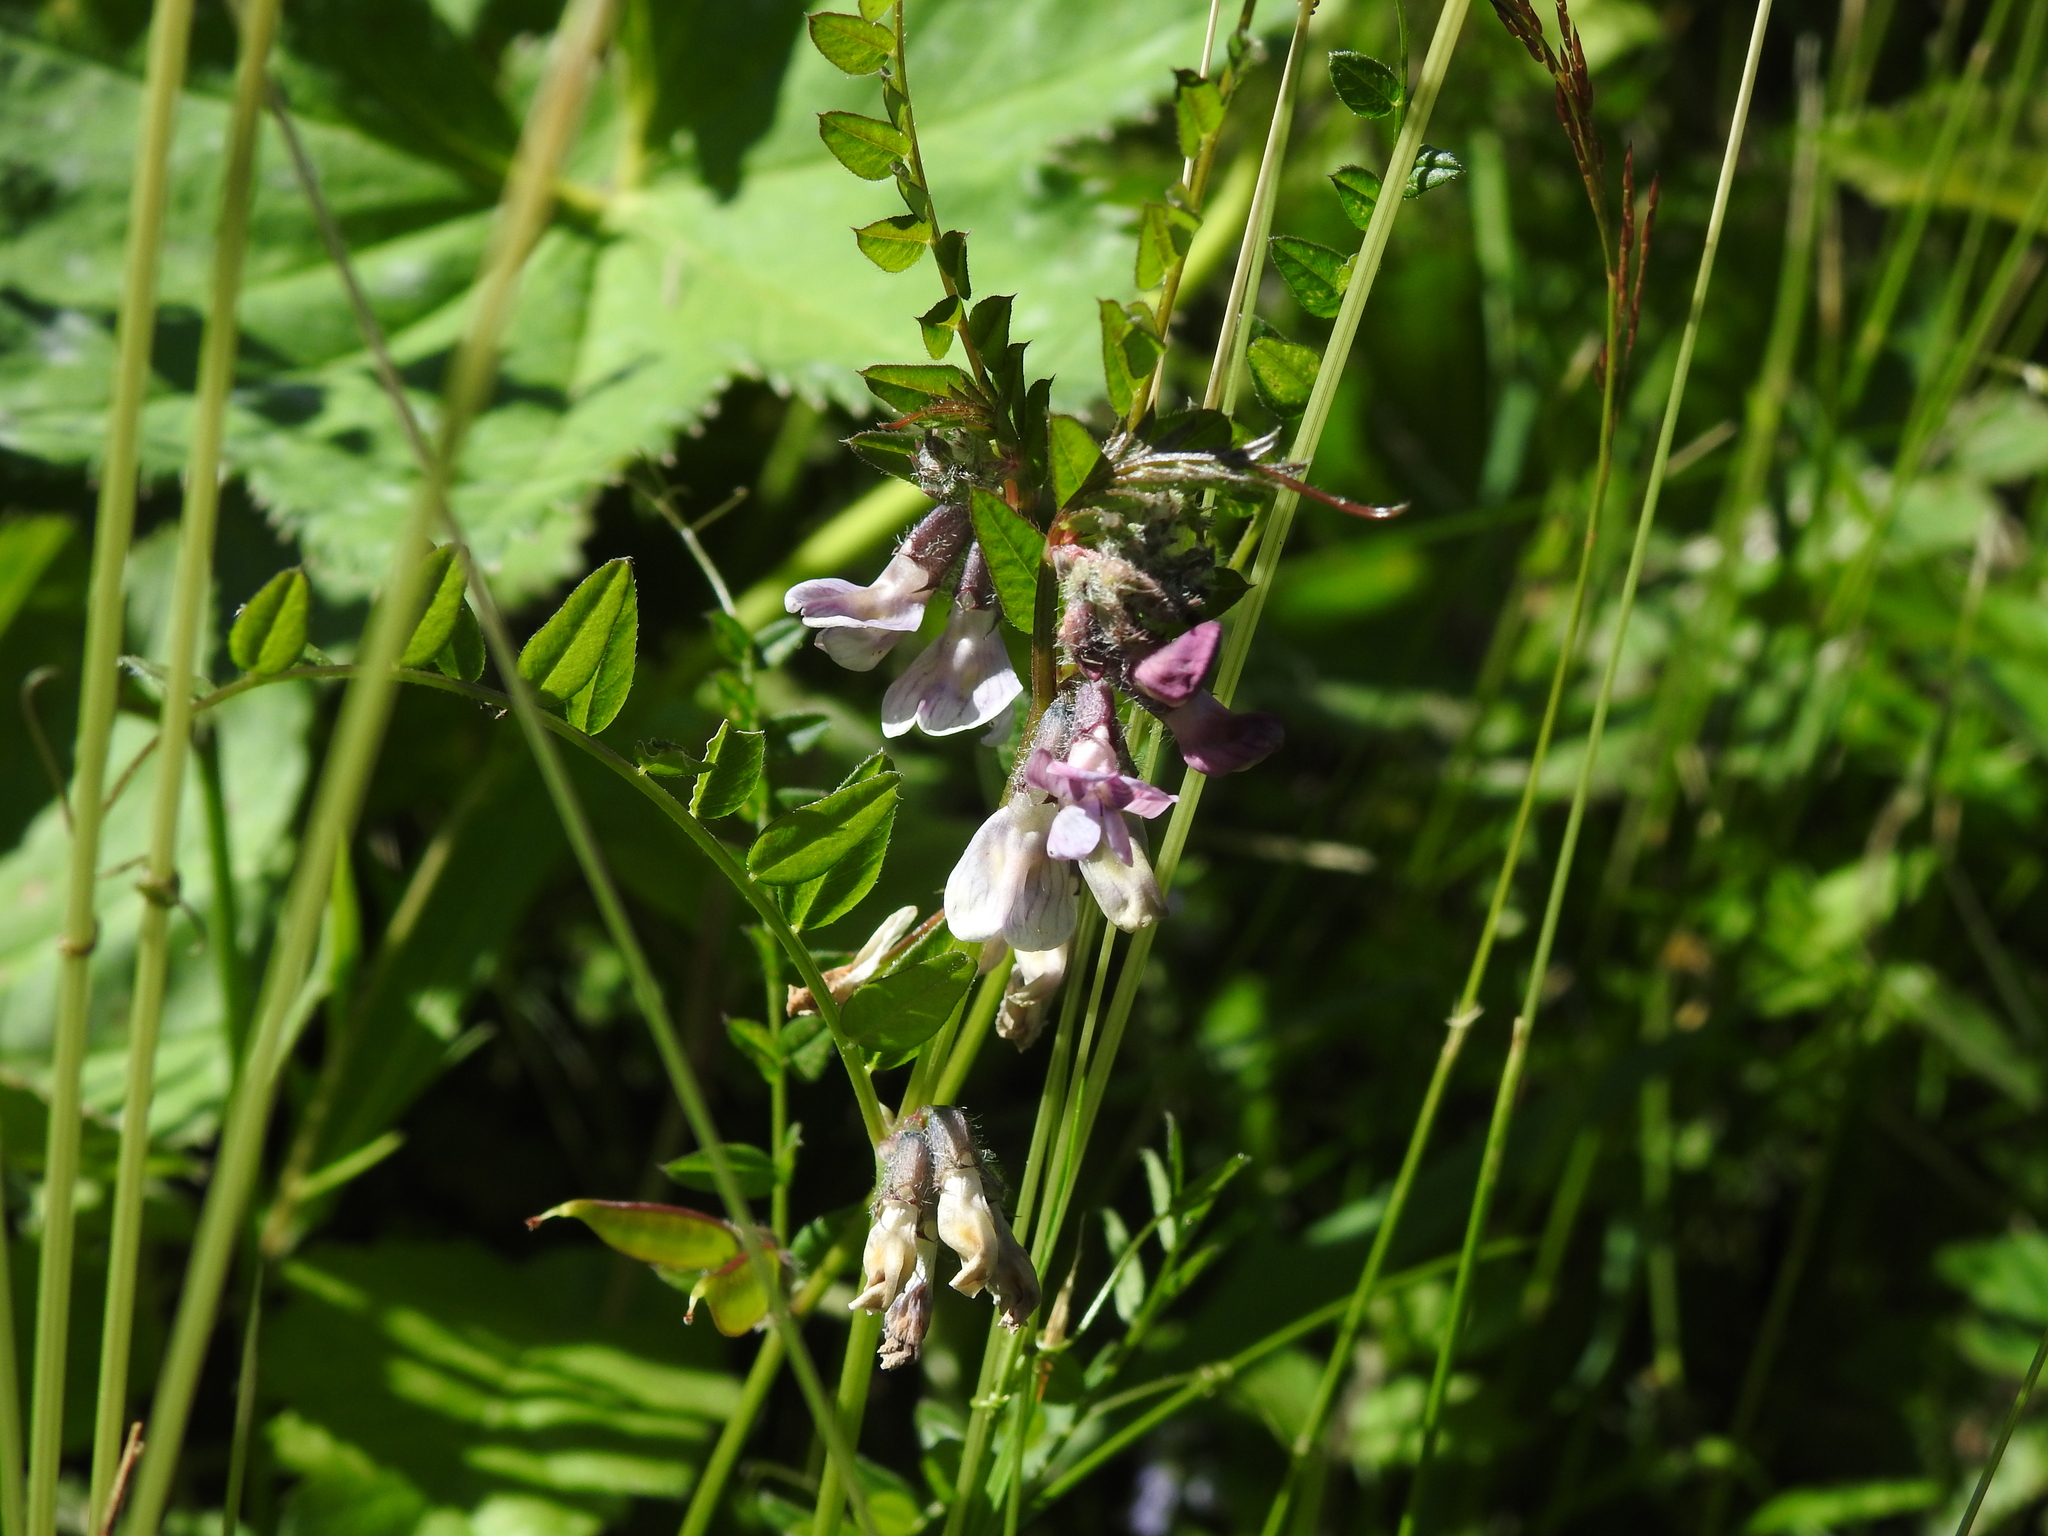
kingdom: Plantae
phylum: Tracheophyta
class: Magnoliopsida
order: Fabales
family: Fabaceae
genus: Vicia
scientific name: Vicia sepium
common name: Bush vetch
